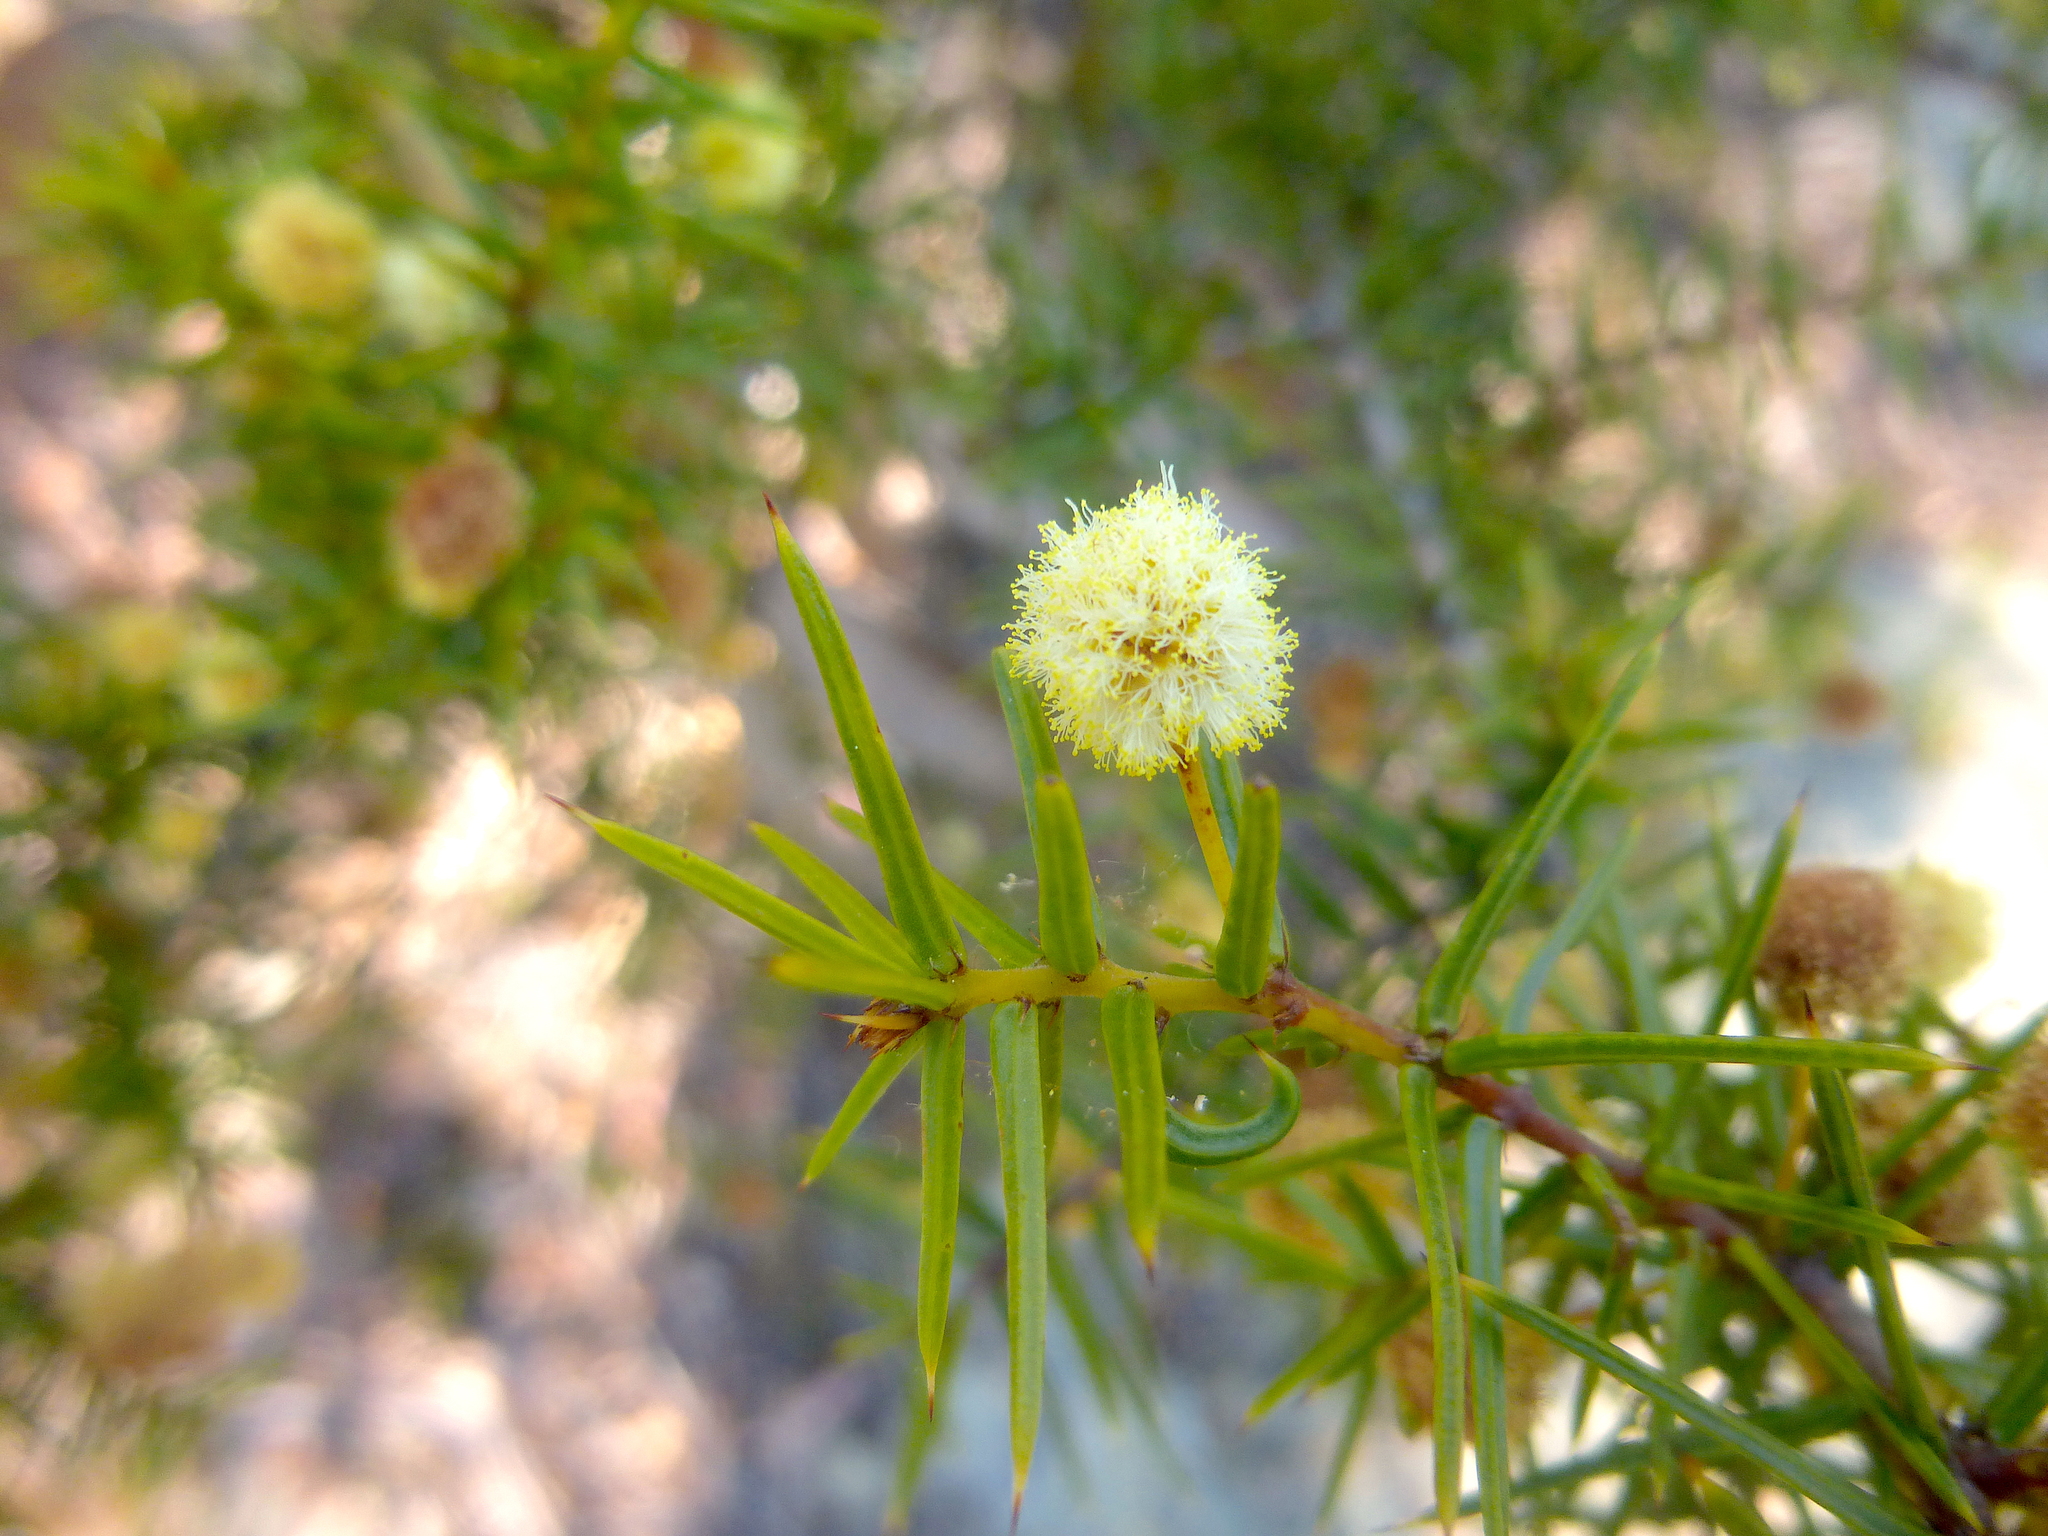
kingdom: Plantae
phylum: Tracheophyta
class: Magnoliopsida
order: Fabales
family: Fabaceae
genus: Acacia
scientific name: Acacia ulicifolia
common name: Juniper wattle
